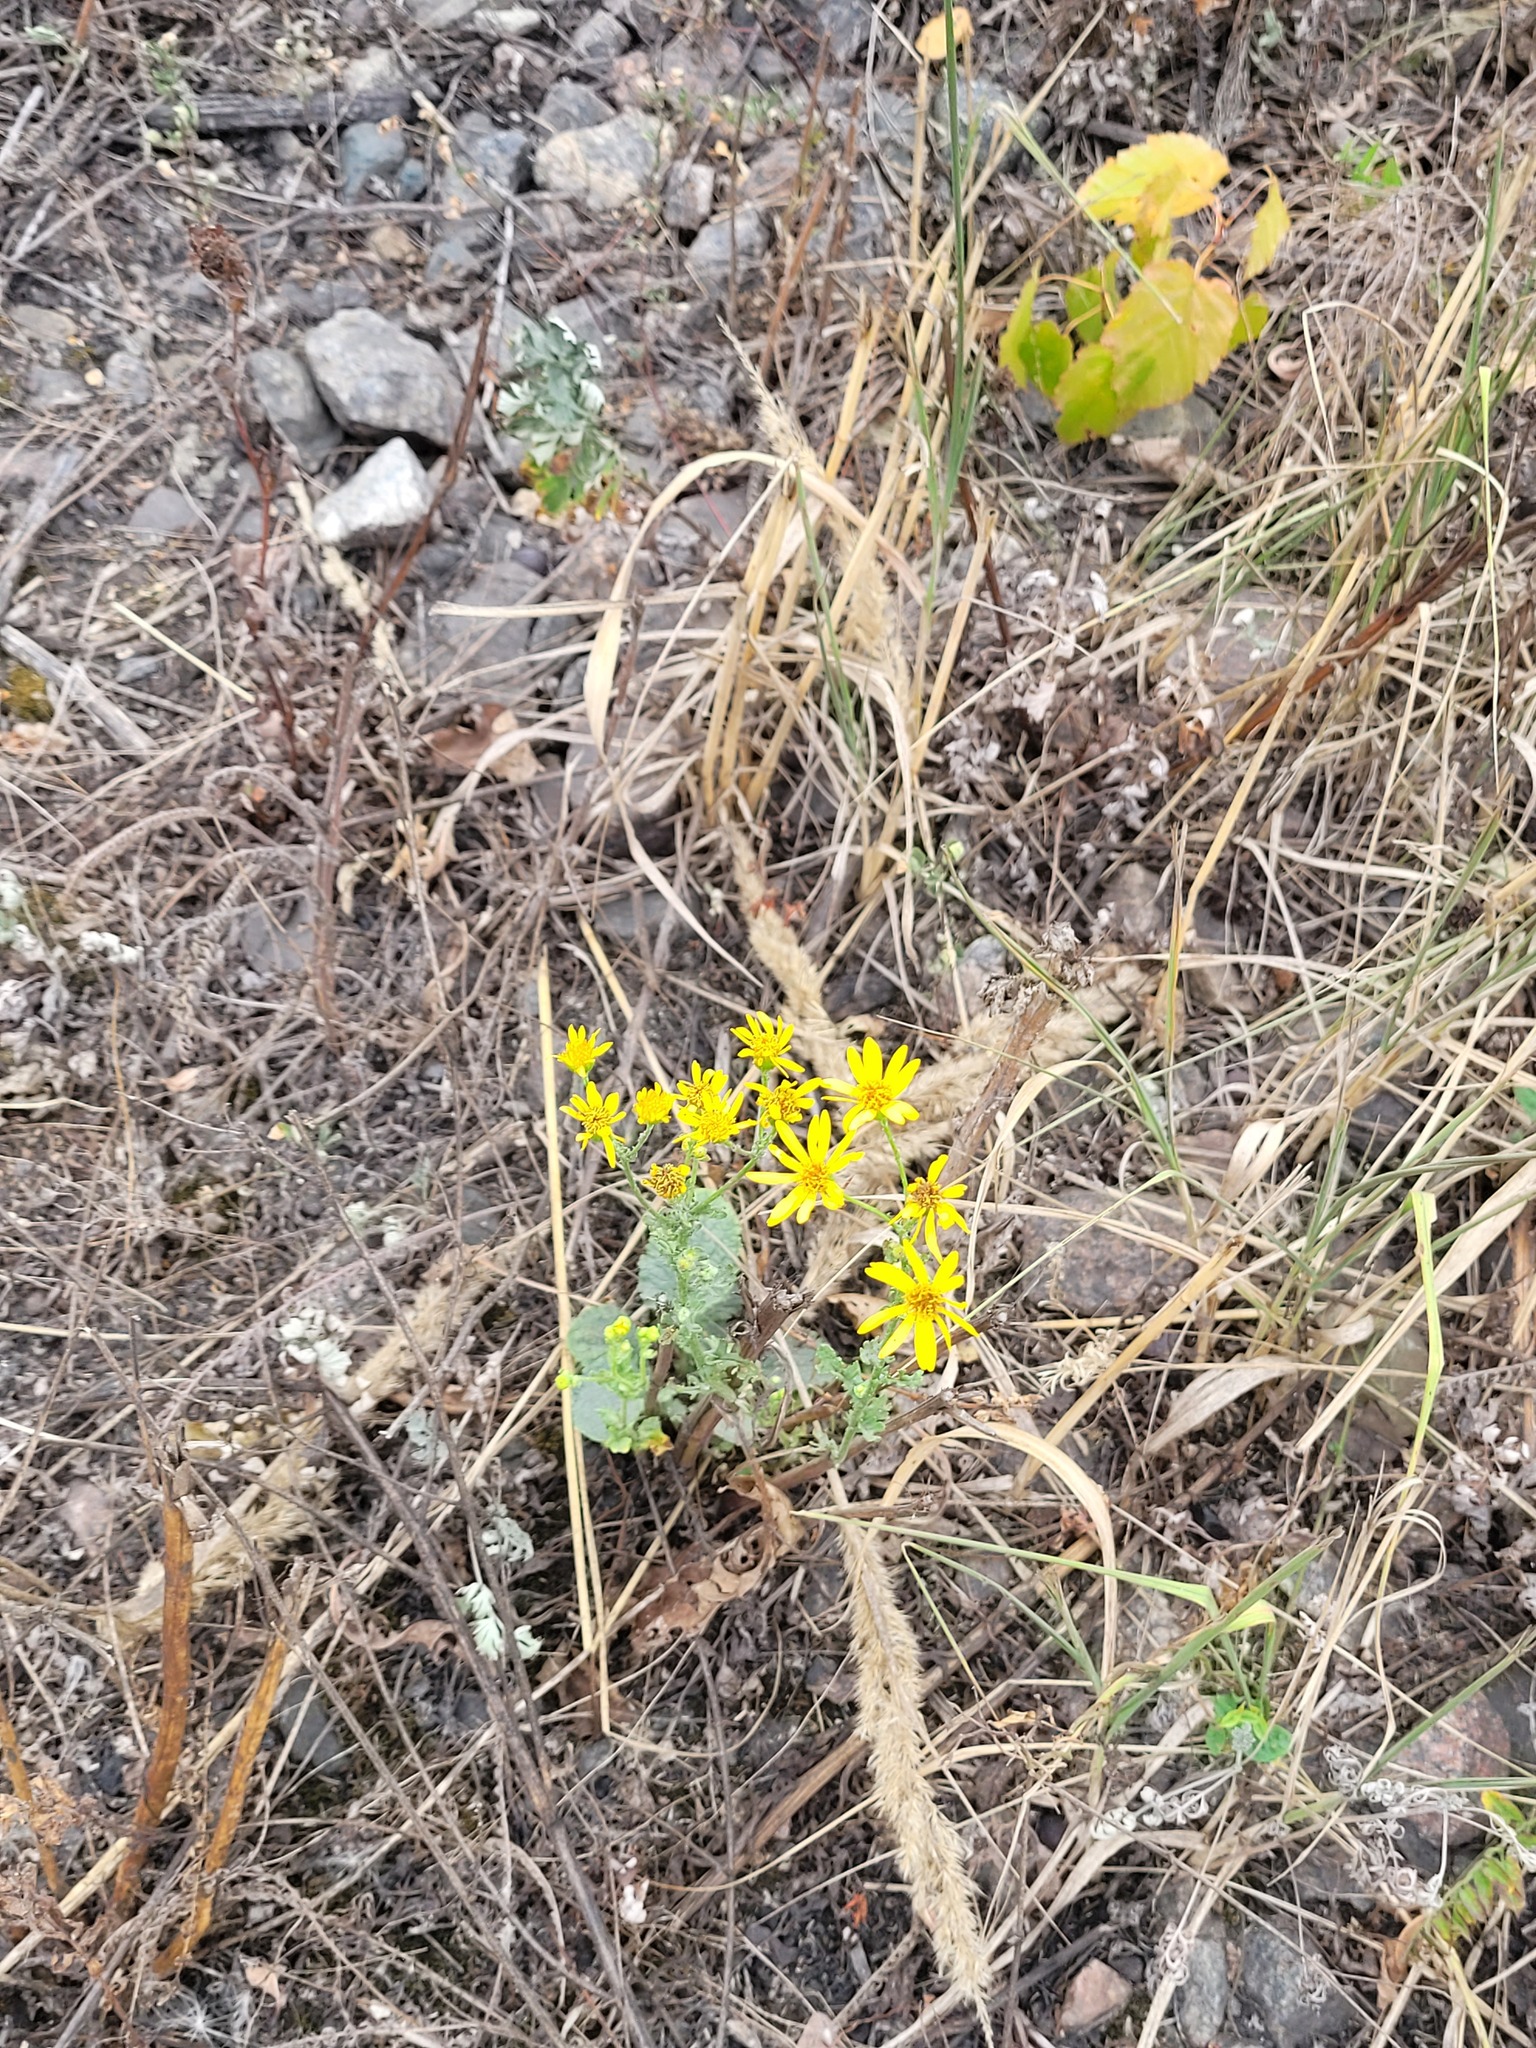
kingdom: Plantae
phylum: Tracheophyta
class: Magnoliopsida
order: Asterales
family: Asteraceae
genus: Jacobaea
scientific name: Jacobaea vulgaris
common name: Stinking willie
